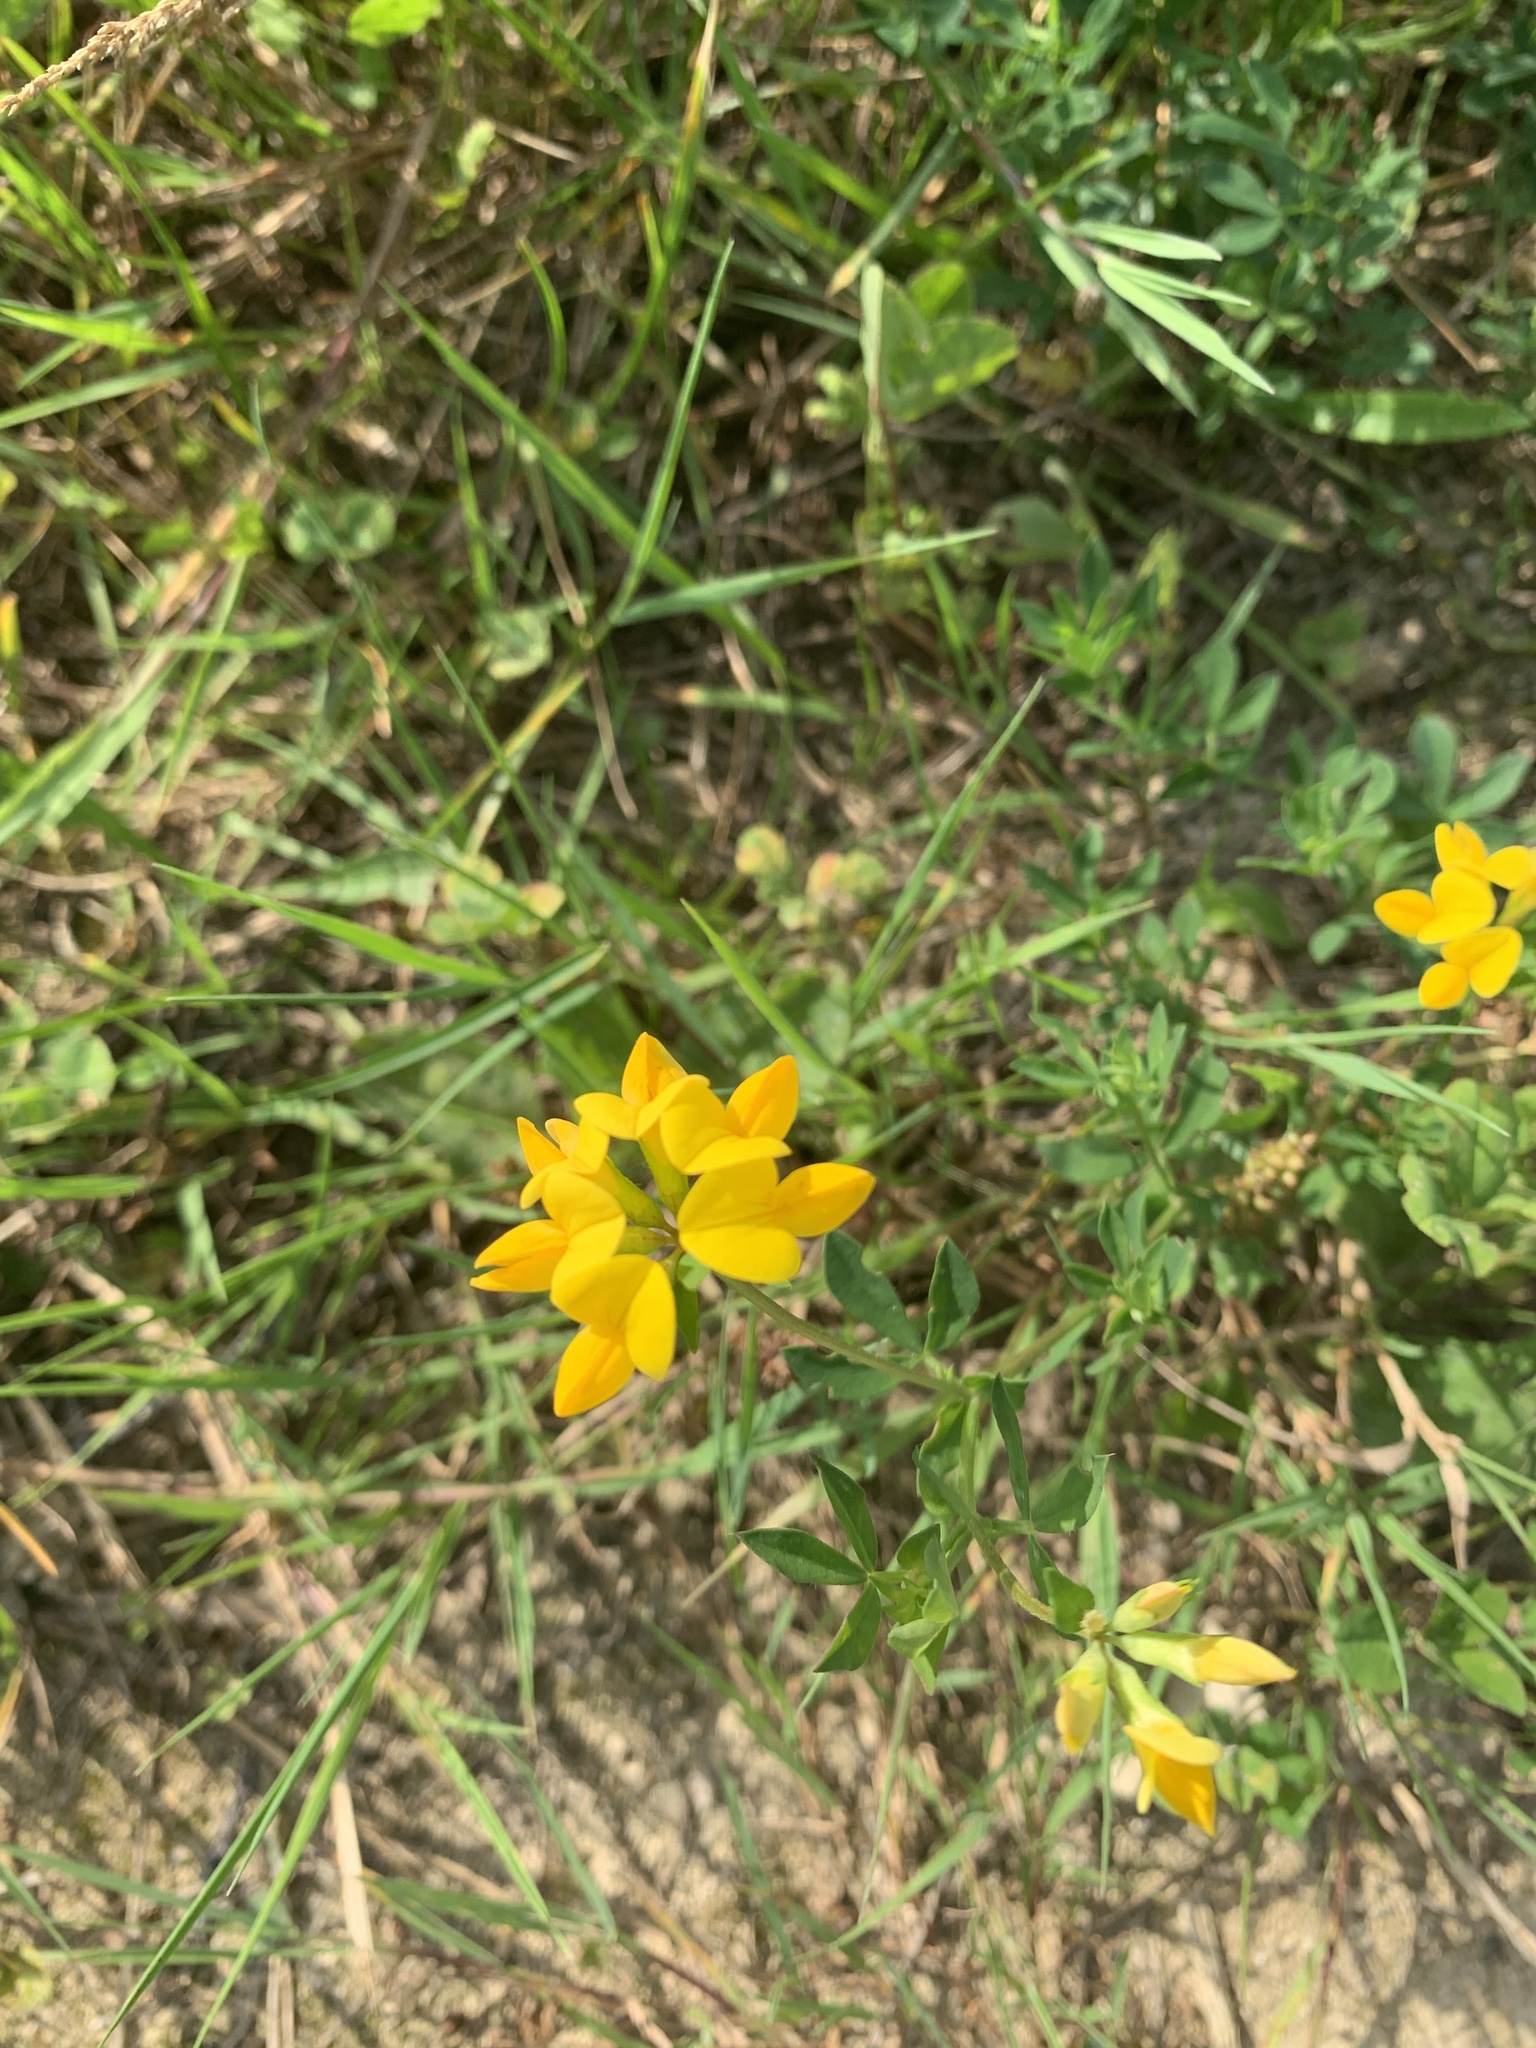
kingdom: Plantae
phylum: Tracheophyta
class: Magnoliopsida
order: Fabales
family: Fabaceae
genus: Lotus
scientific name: Lotus corniculatus
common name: Common bird's-foot-trefoil
